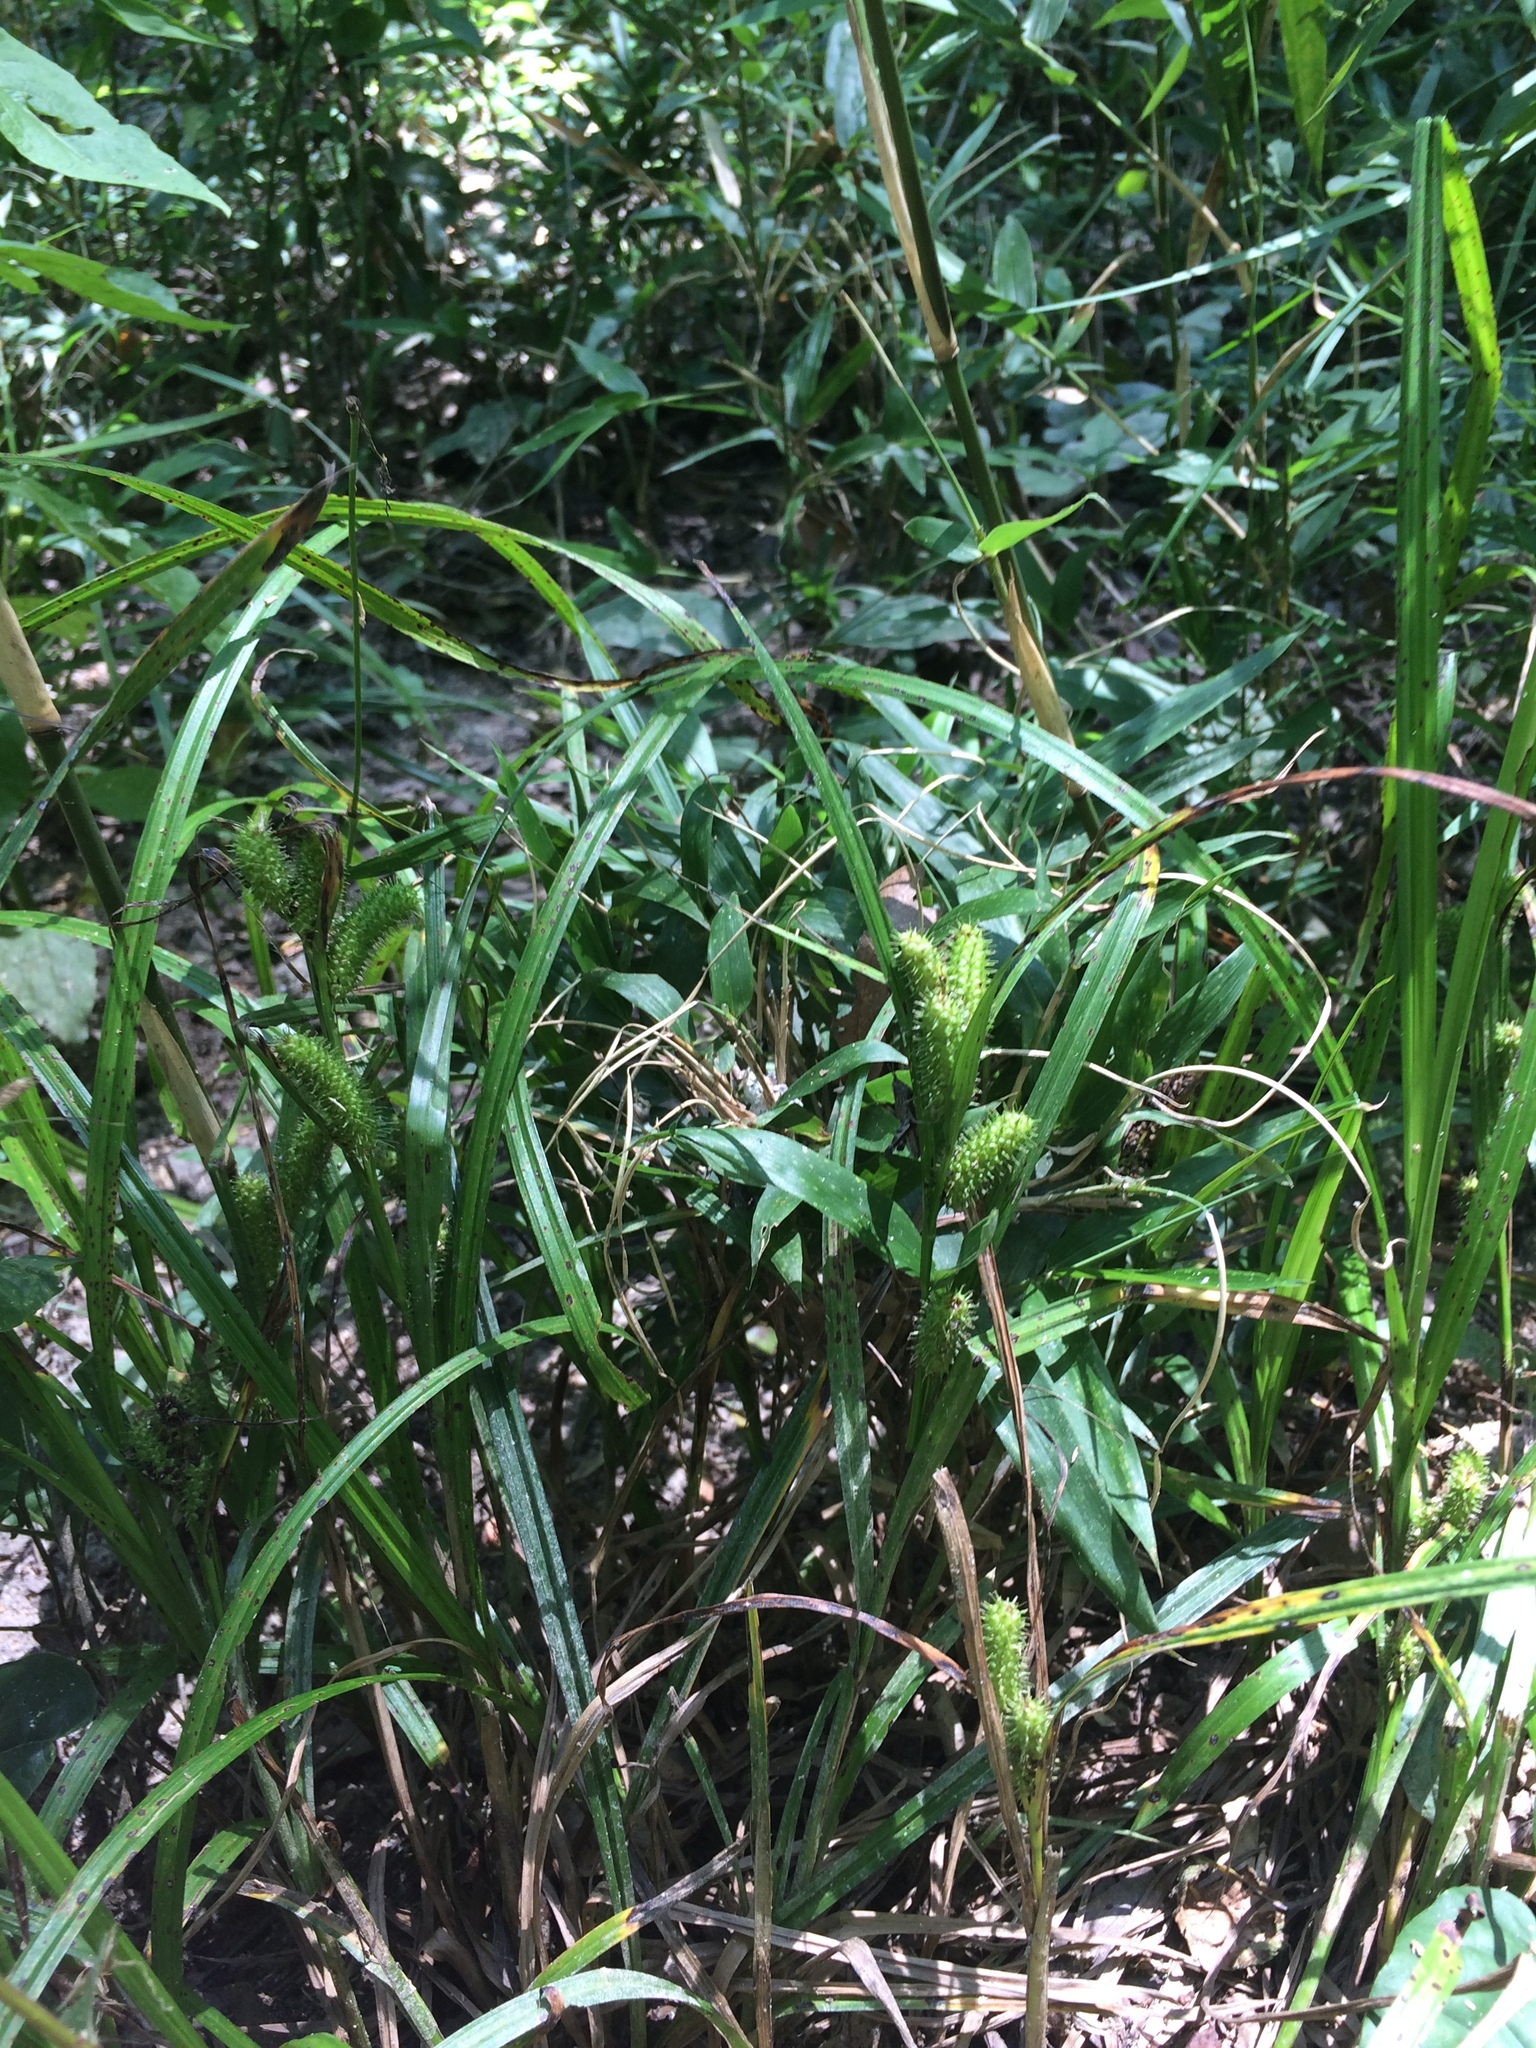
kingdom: Plantae
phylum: Tracheophyta
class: Liliopsida
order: Poales
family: Cyperaceae
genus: Carex
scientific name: Carex aureolensis
